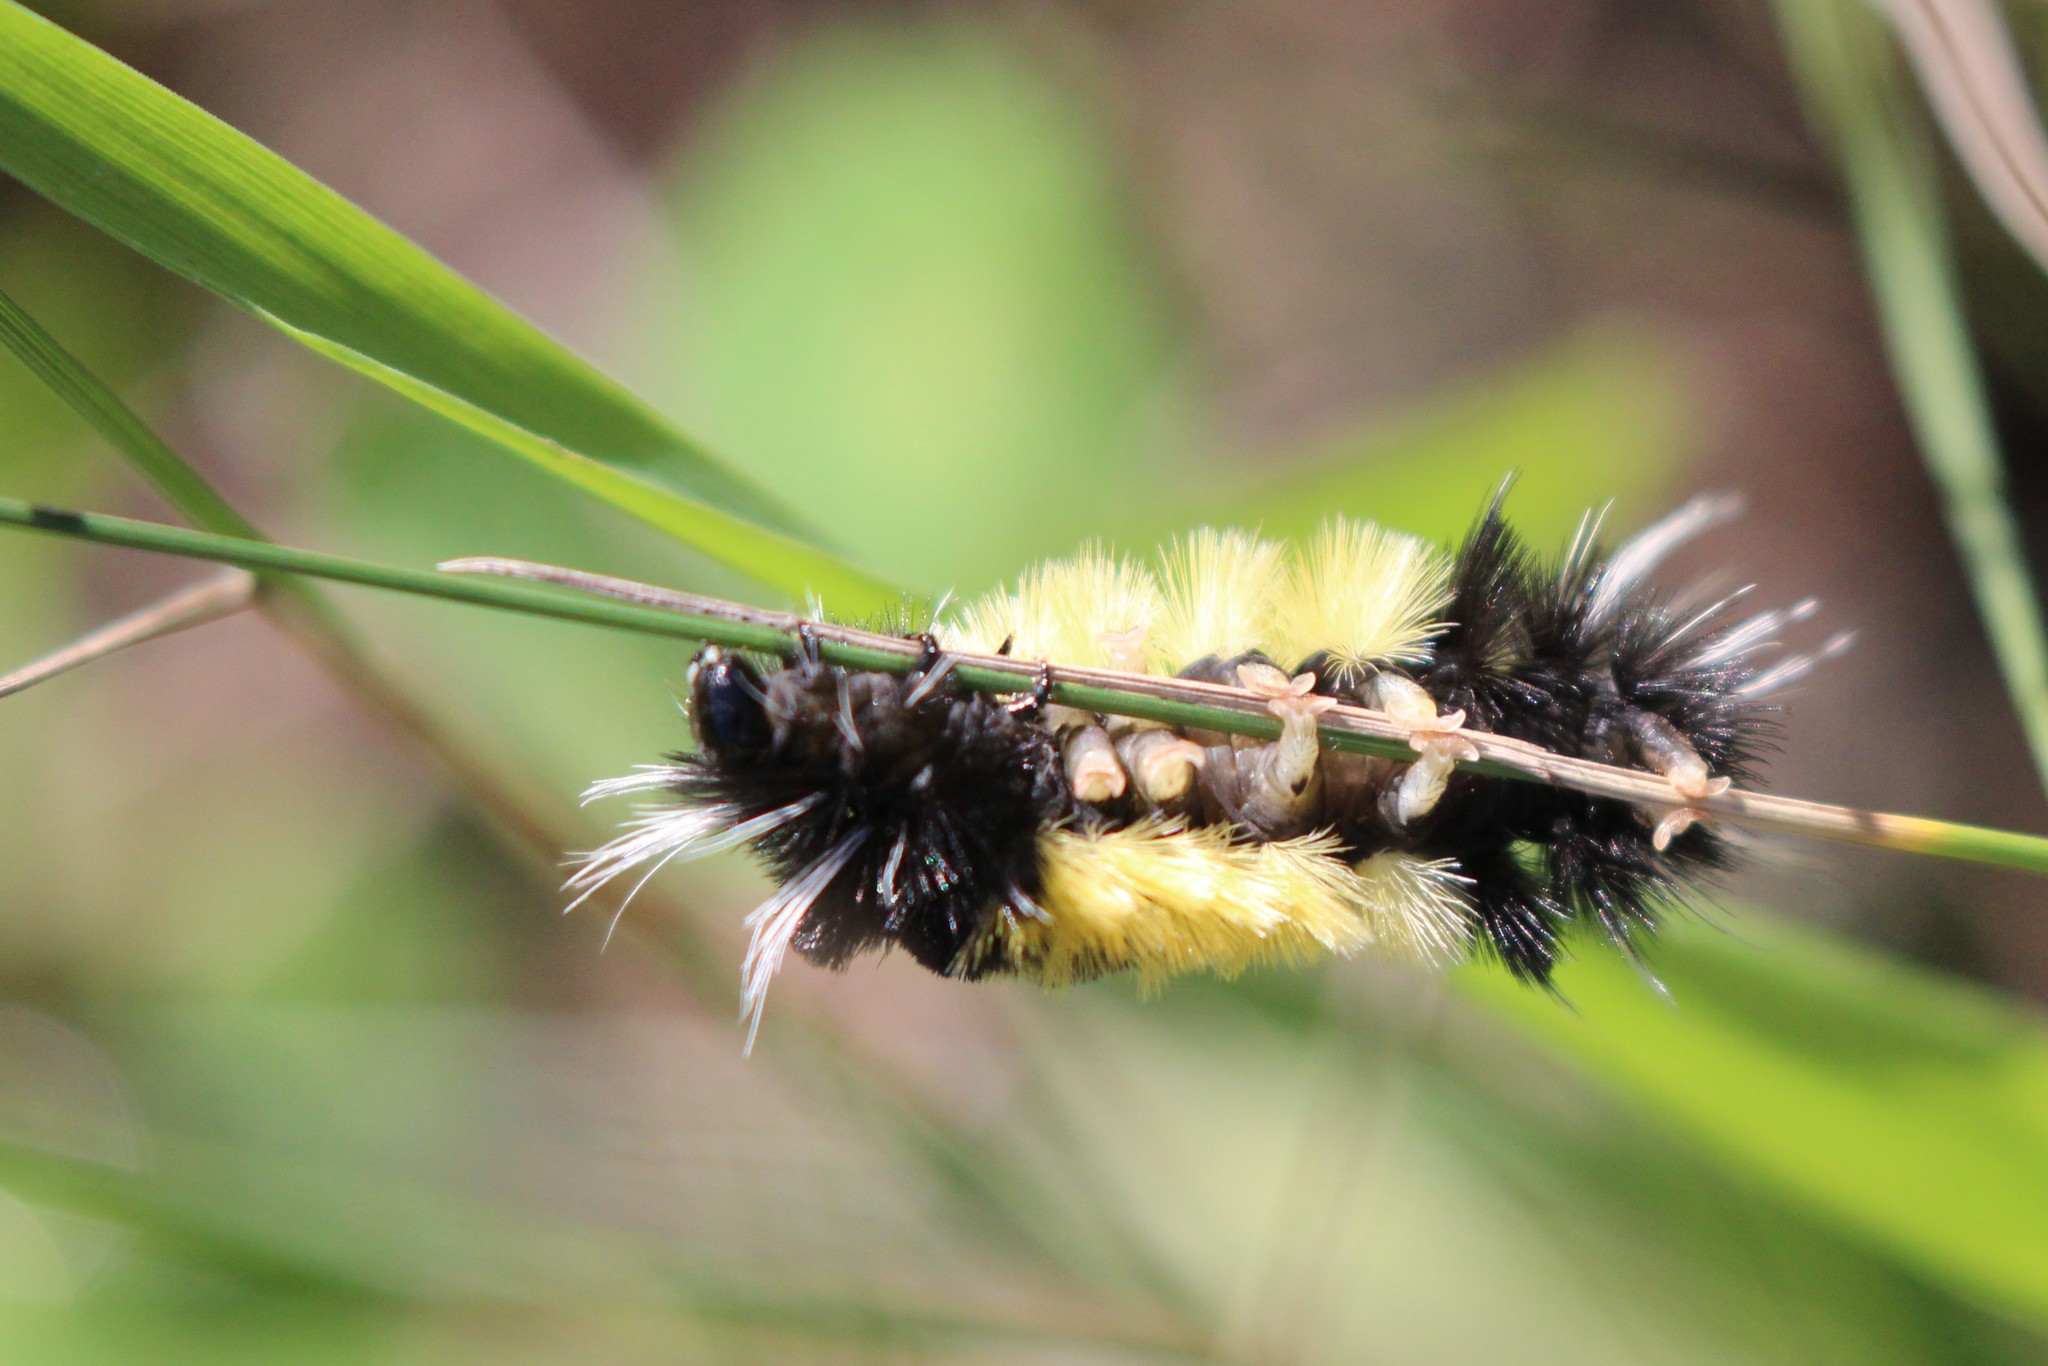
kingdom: Animalia
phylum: Arthropoda
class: Insecta
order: Lepidoptera
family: Erebidae
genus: Lophocampa
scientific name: Lophocampa maculata
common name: Spotted tussock moth
